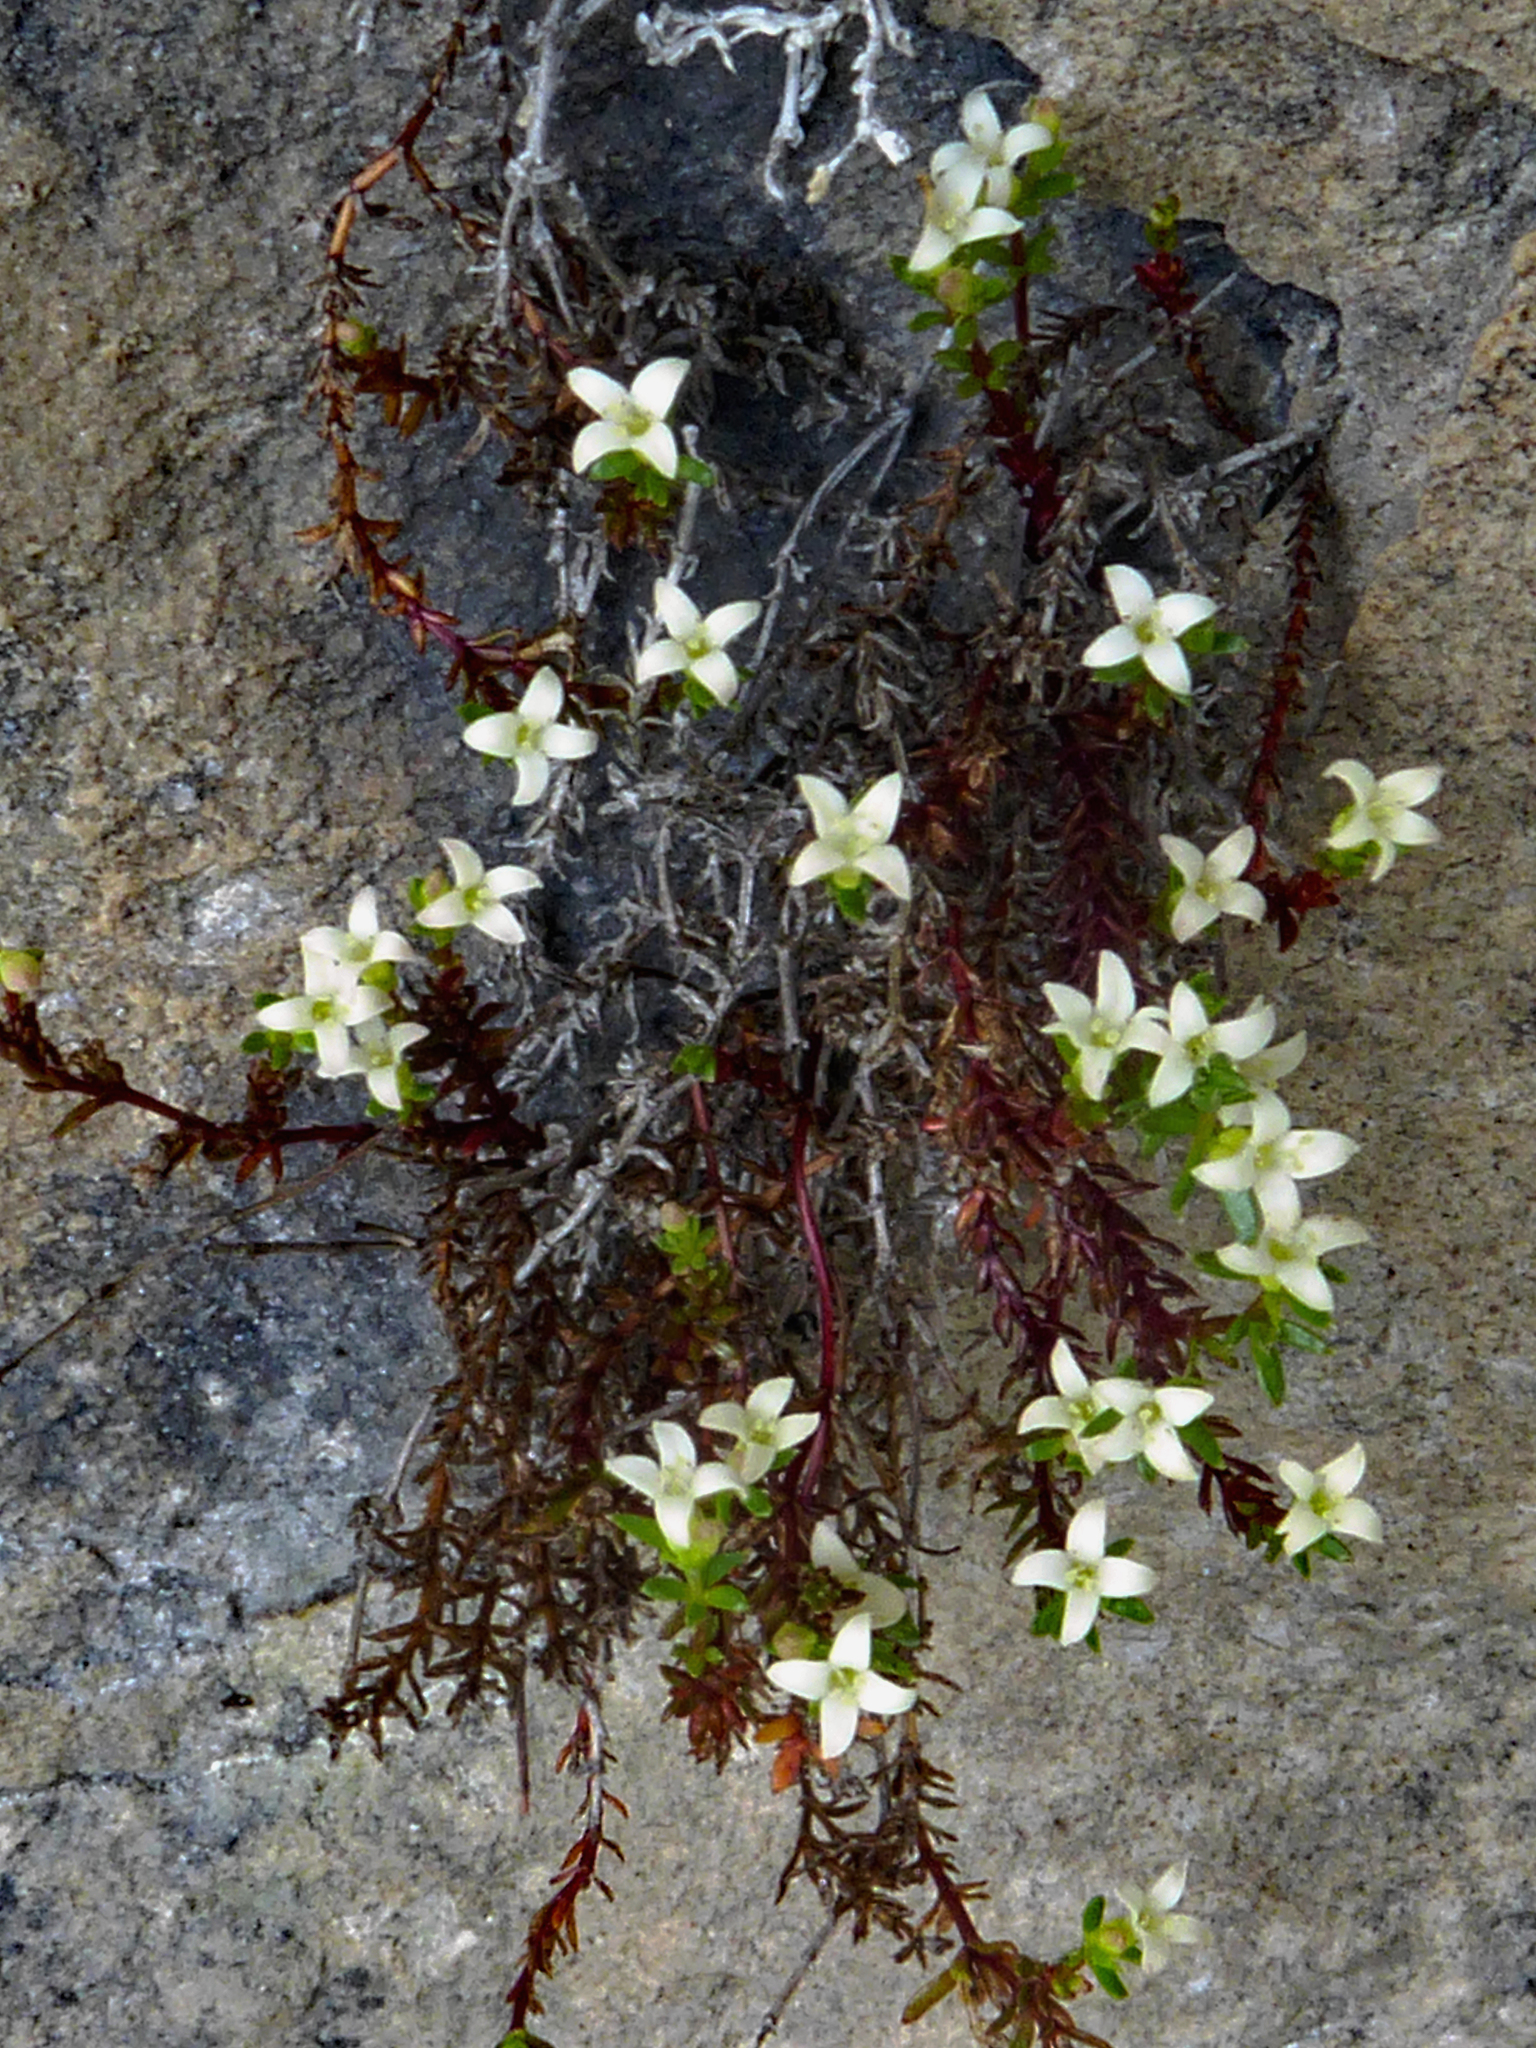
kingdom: Plantae
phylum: Tracheophyta
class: Magnoliopsida
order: Gentianales
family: Rubiaceae
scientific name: Rubiaceae
